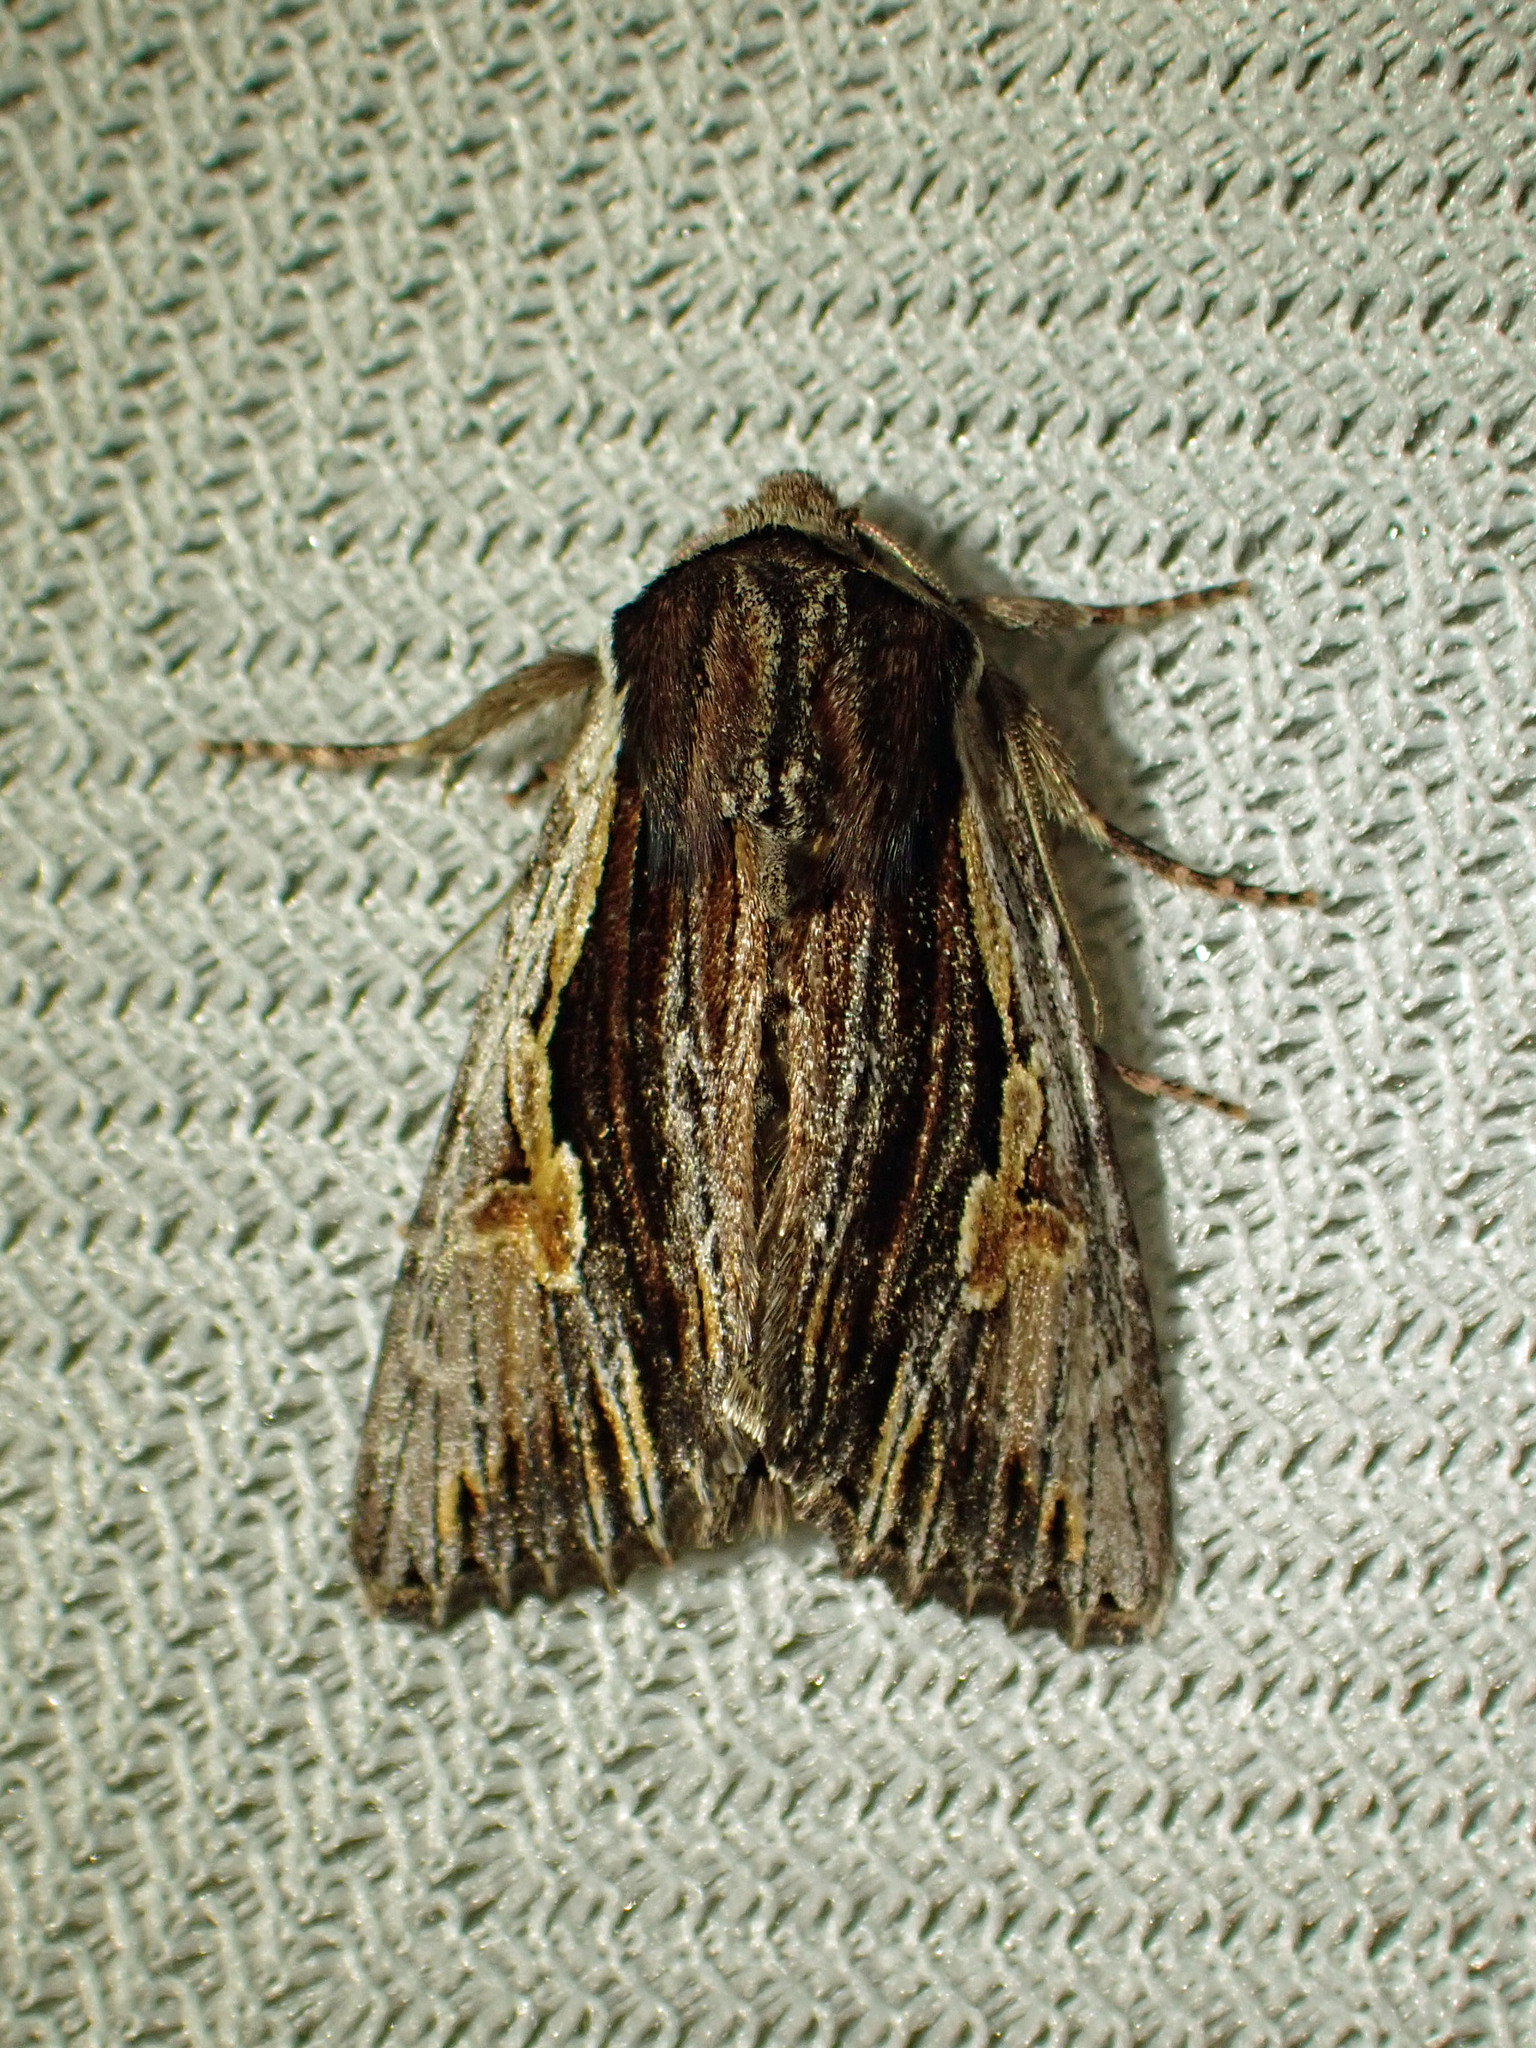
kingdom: Animalia
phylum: Arthropoda
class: Insecta
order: Lepidoptera
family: Noctuidae
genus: Achatia
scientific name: Achatia evicta
